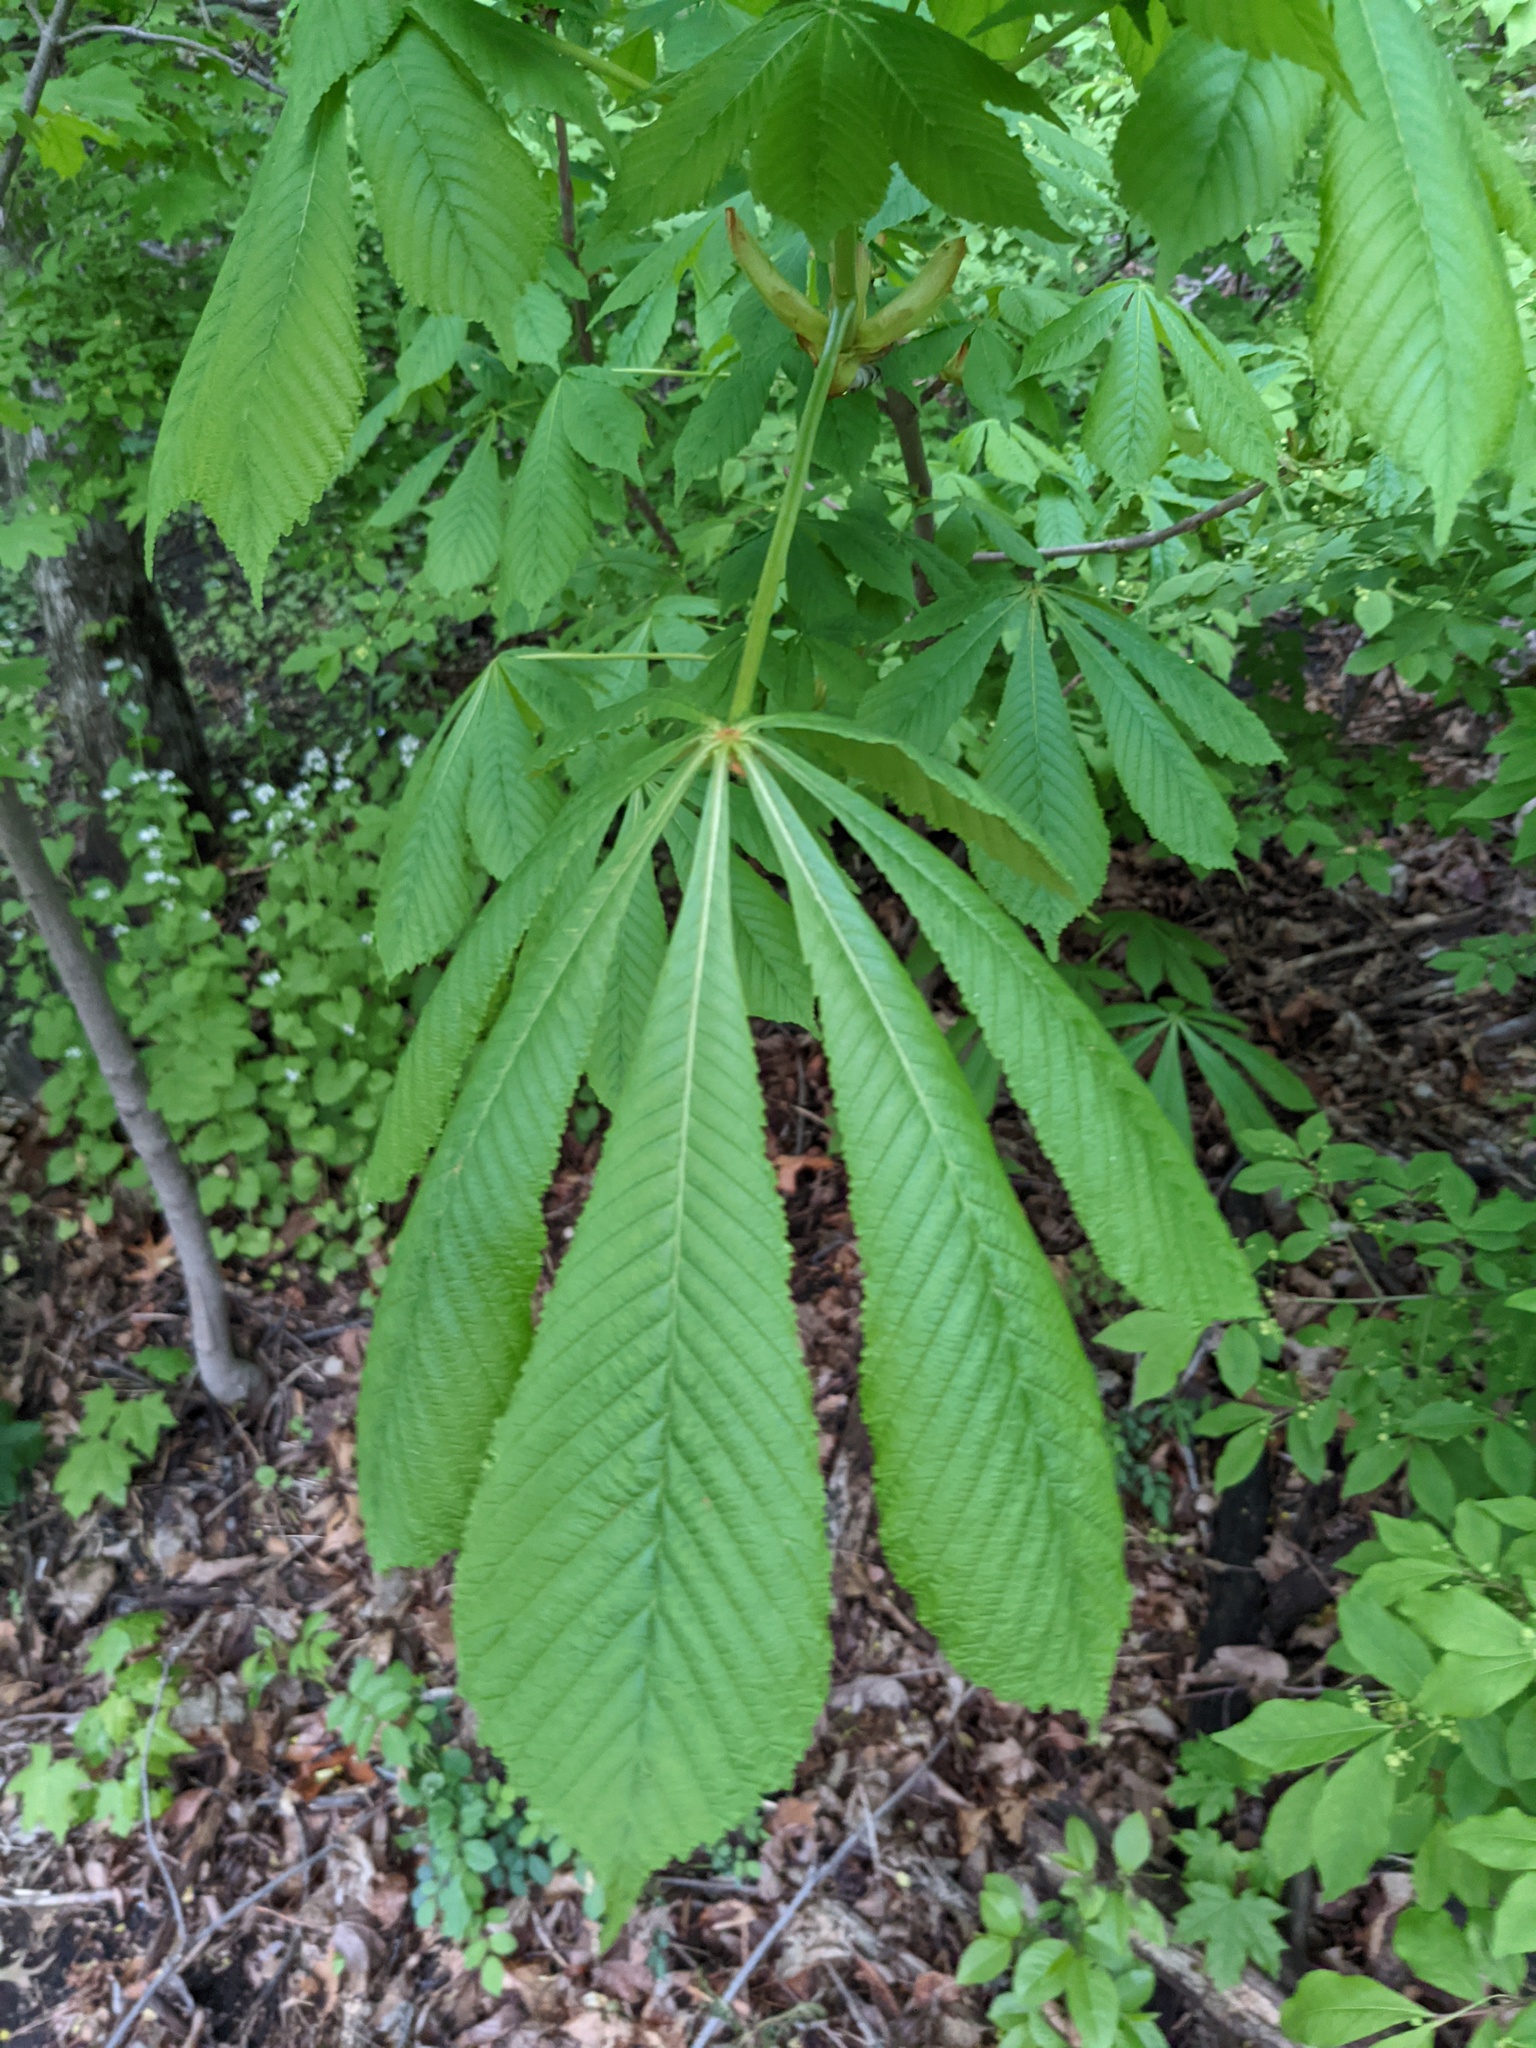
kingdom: Plantae
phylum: Tracheophyta
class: Magnoliopsida
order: Sapindales
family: Sapindaceae
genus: Aesculus
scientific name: Aesculus hippocastanum
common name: Horse-chestnut
